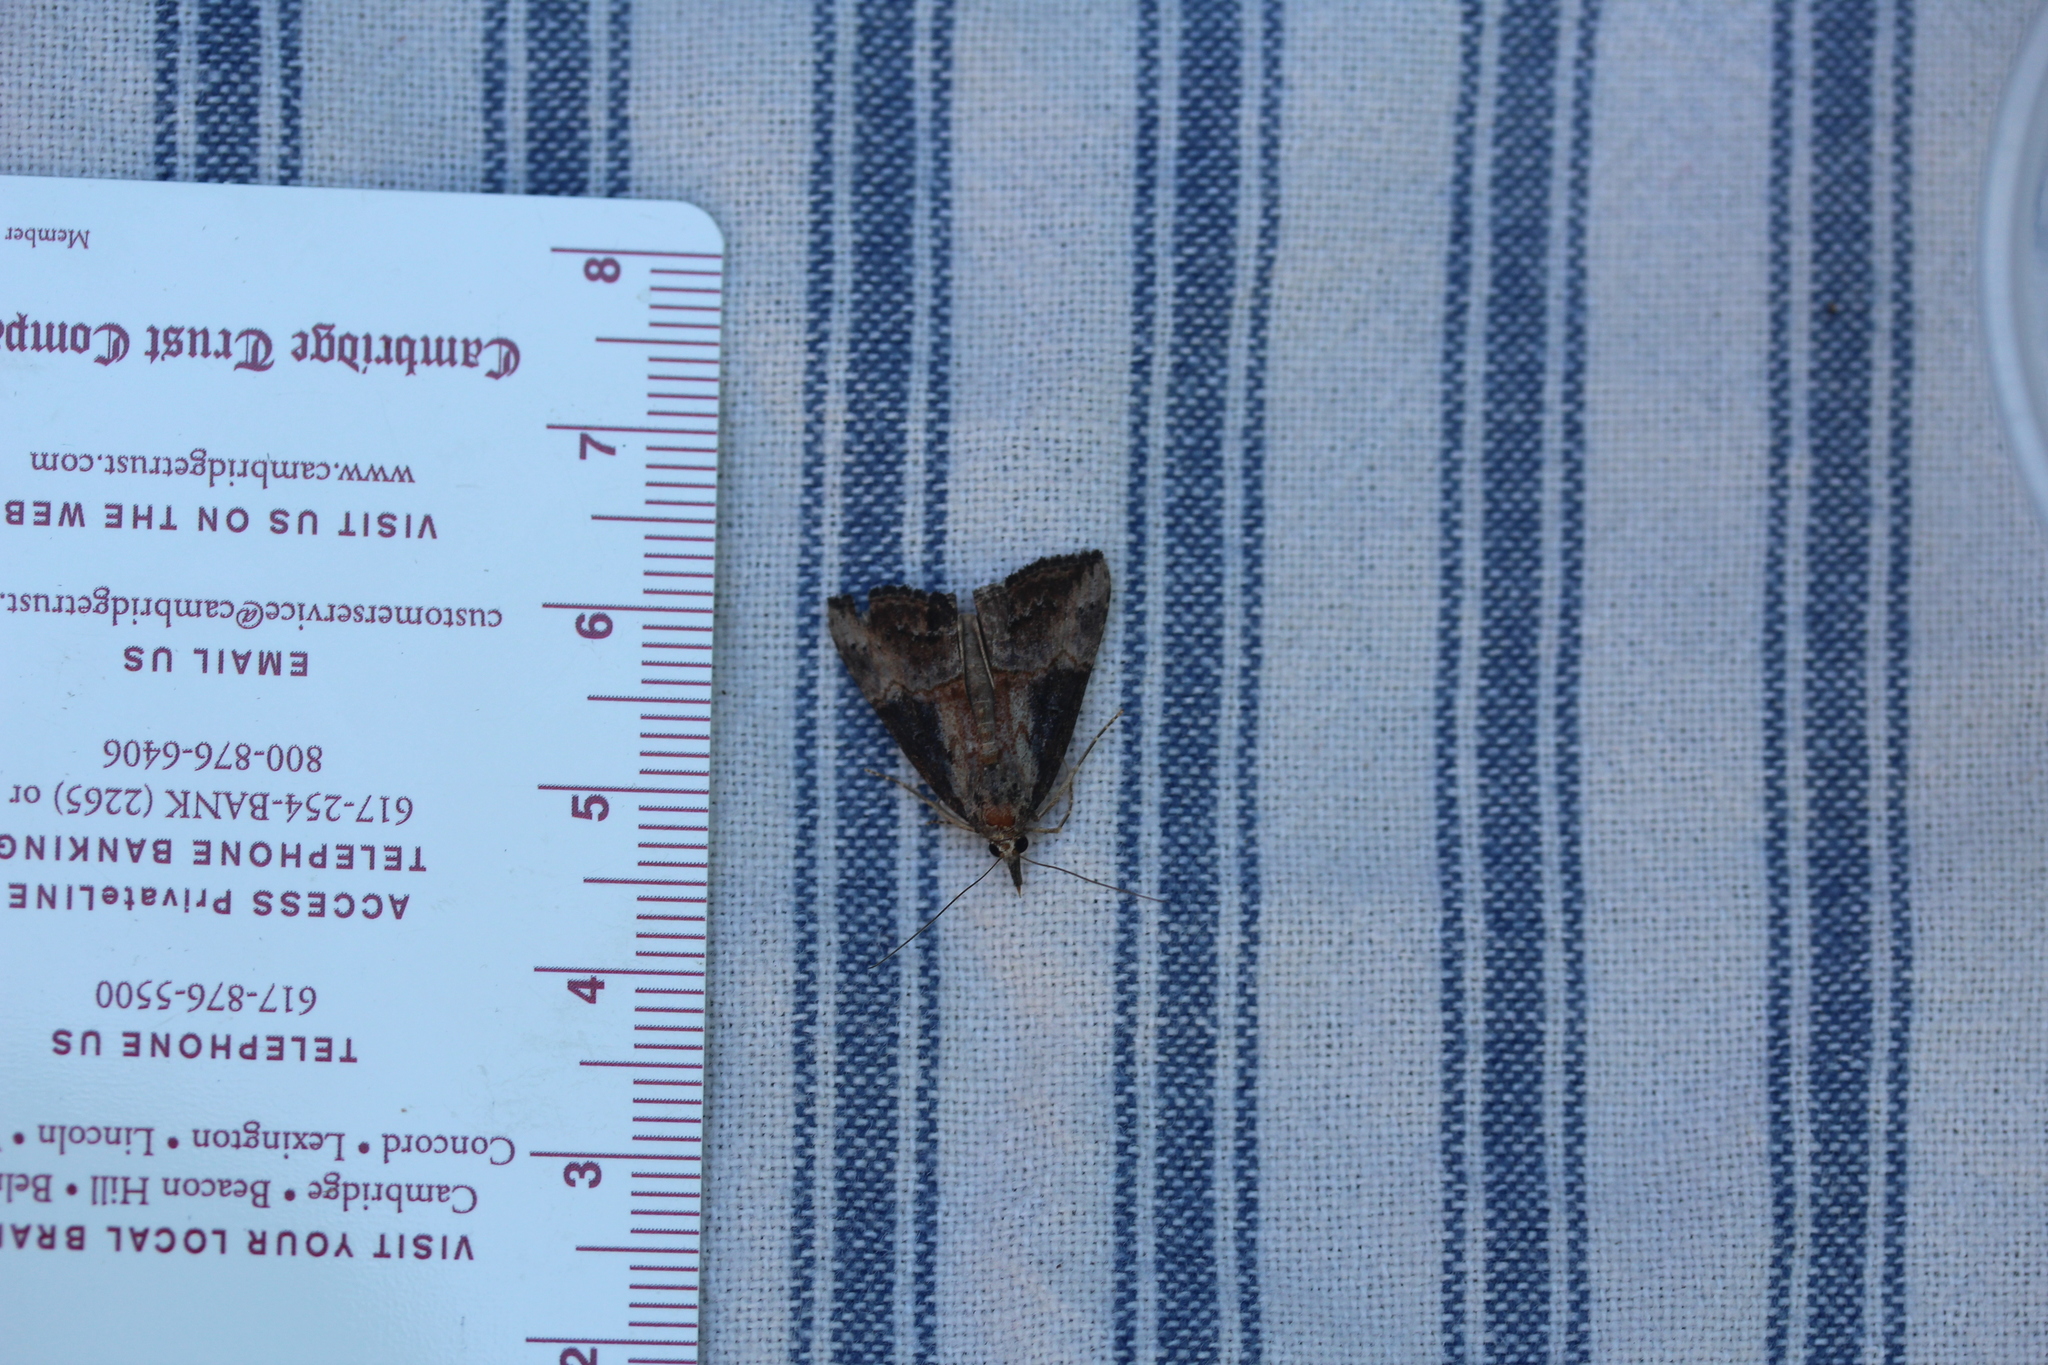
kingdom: Animalia
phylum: Arthropoda
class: Insecta
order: Lepidoptera
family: Erebidae
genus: Hypena
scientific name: Hypena scabra
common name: Green cloverworm
